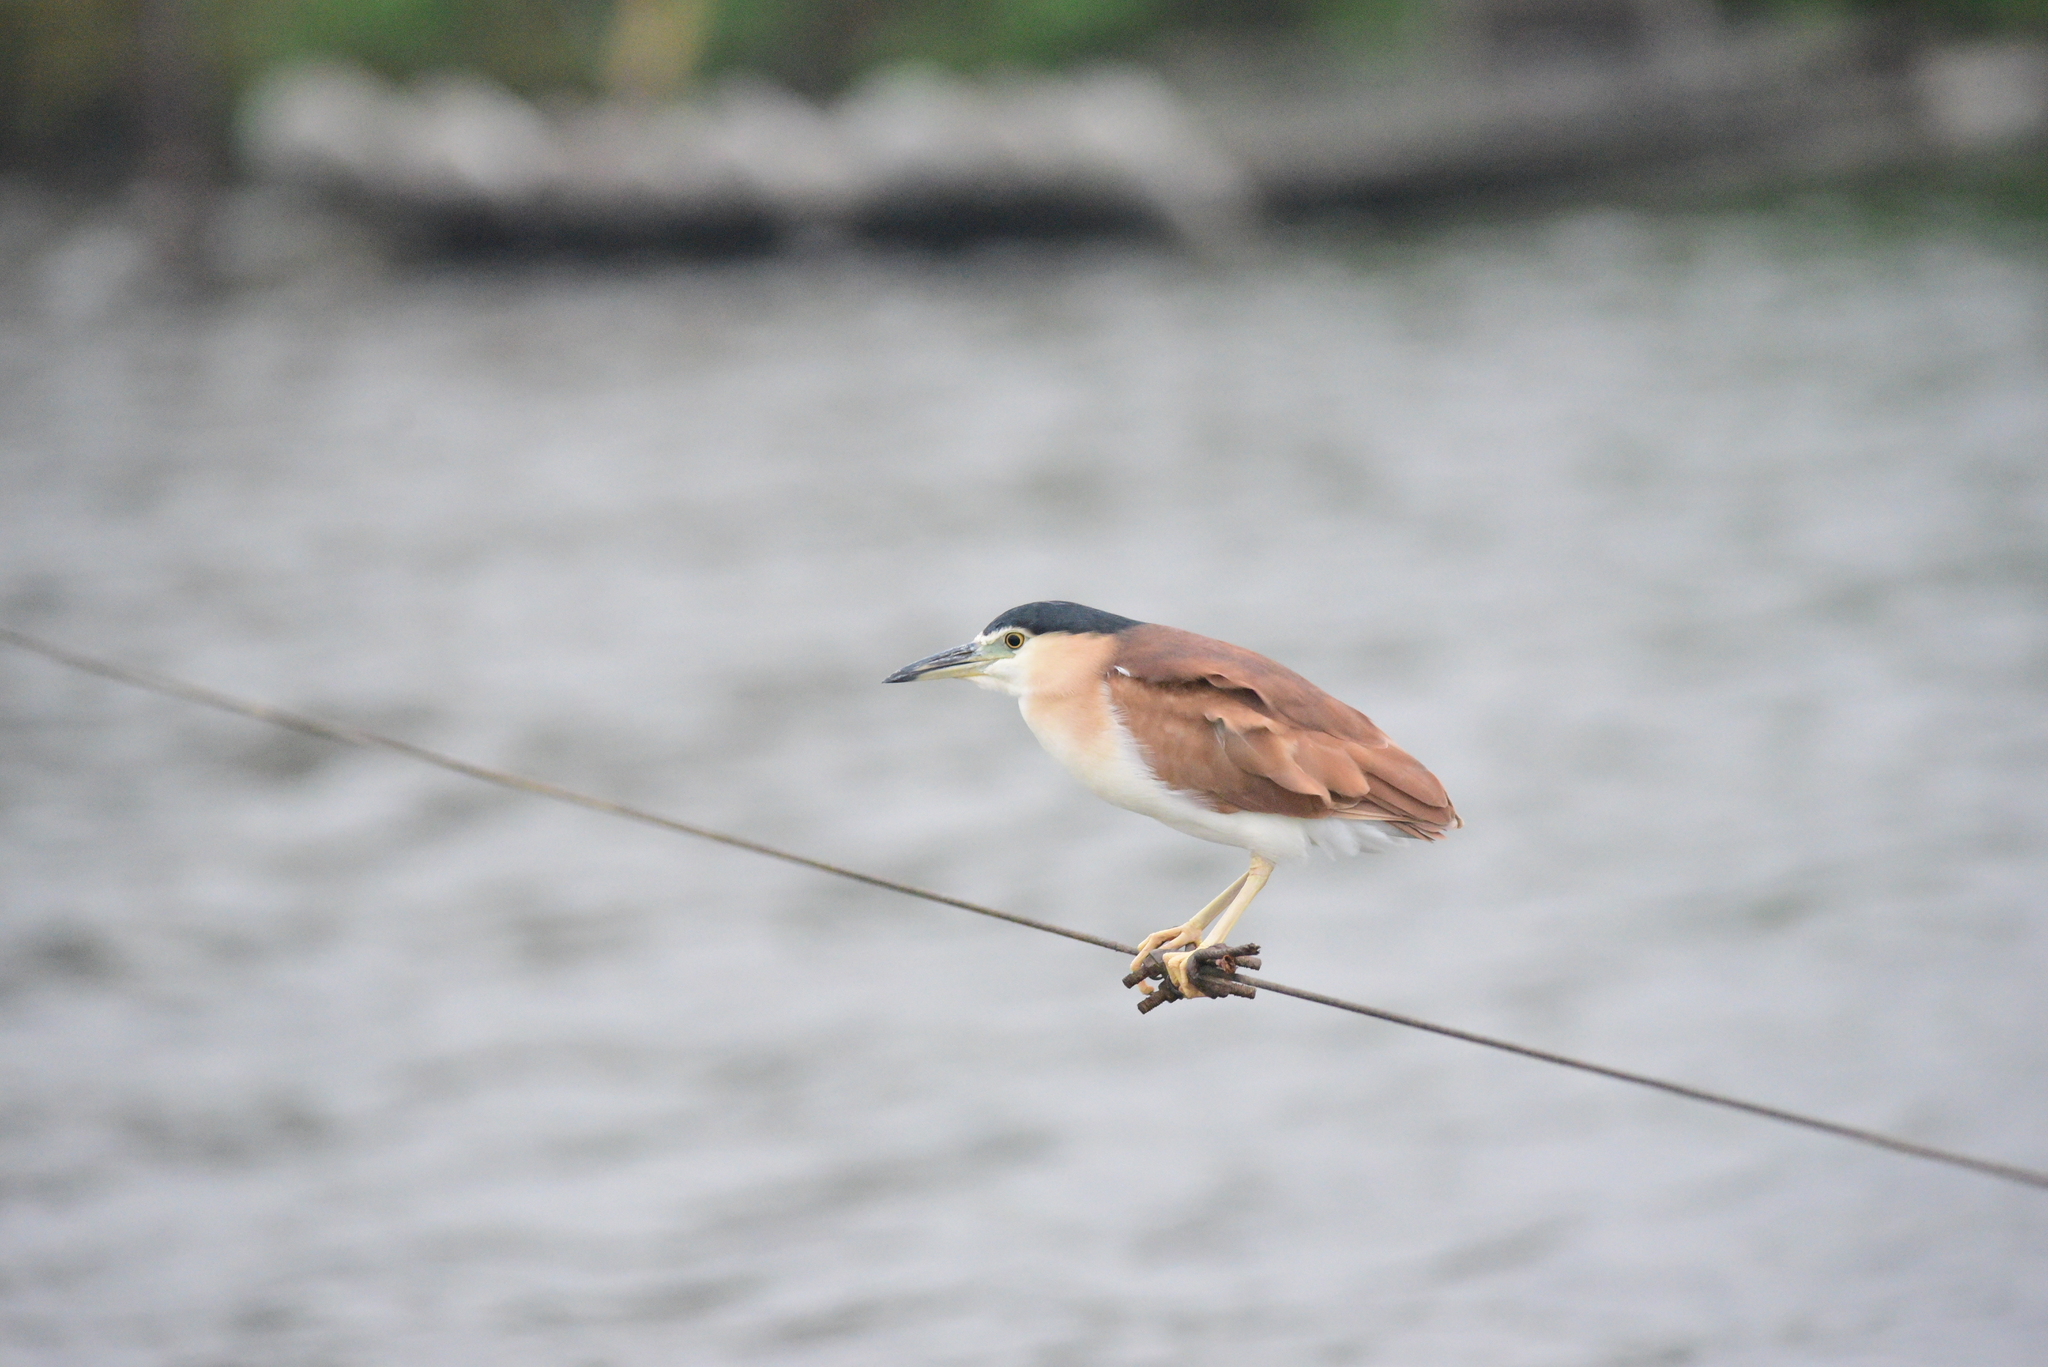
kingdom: Animalia
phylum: Chordata
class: Aves
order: Pelecaniformes
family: Ardeidae
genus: Nycticorax
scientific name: Nycticorax caledonicus
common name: Rufous night-heron
